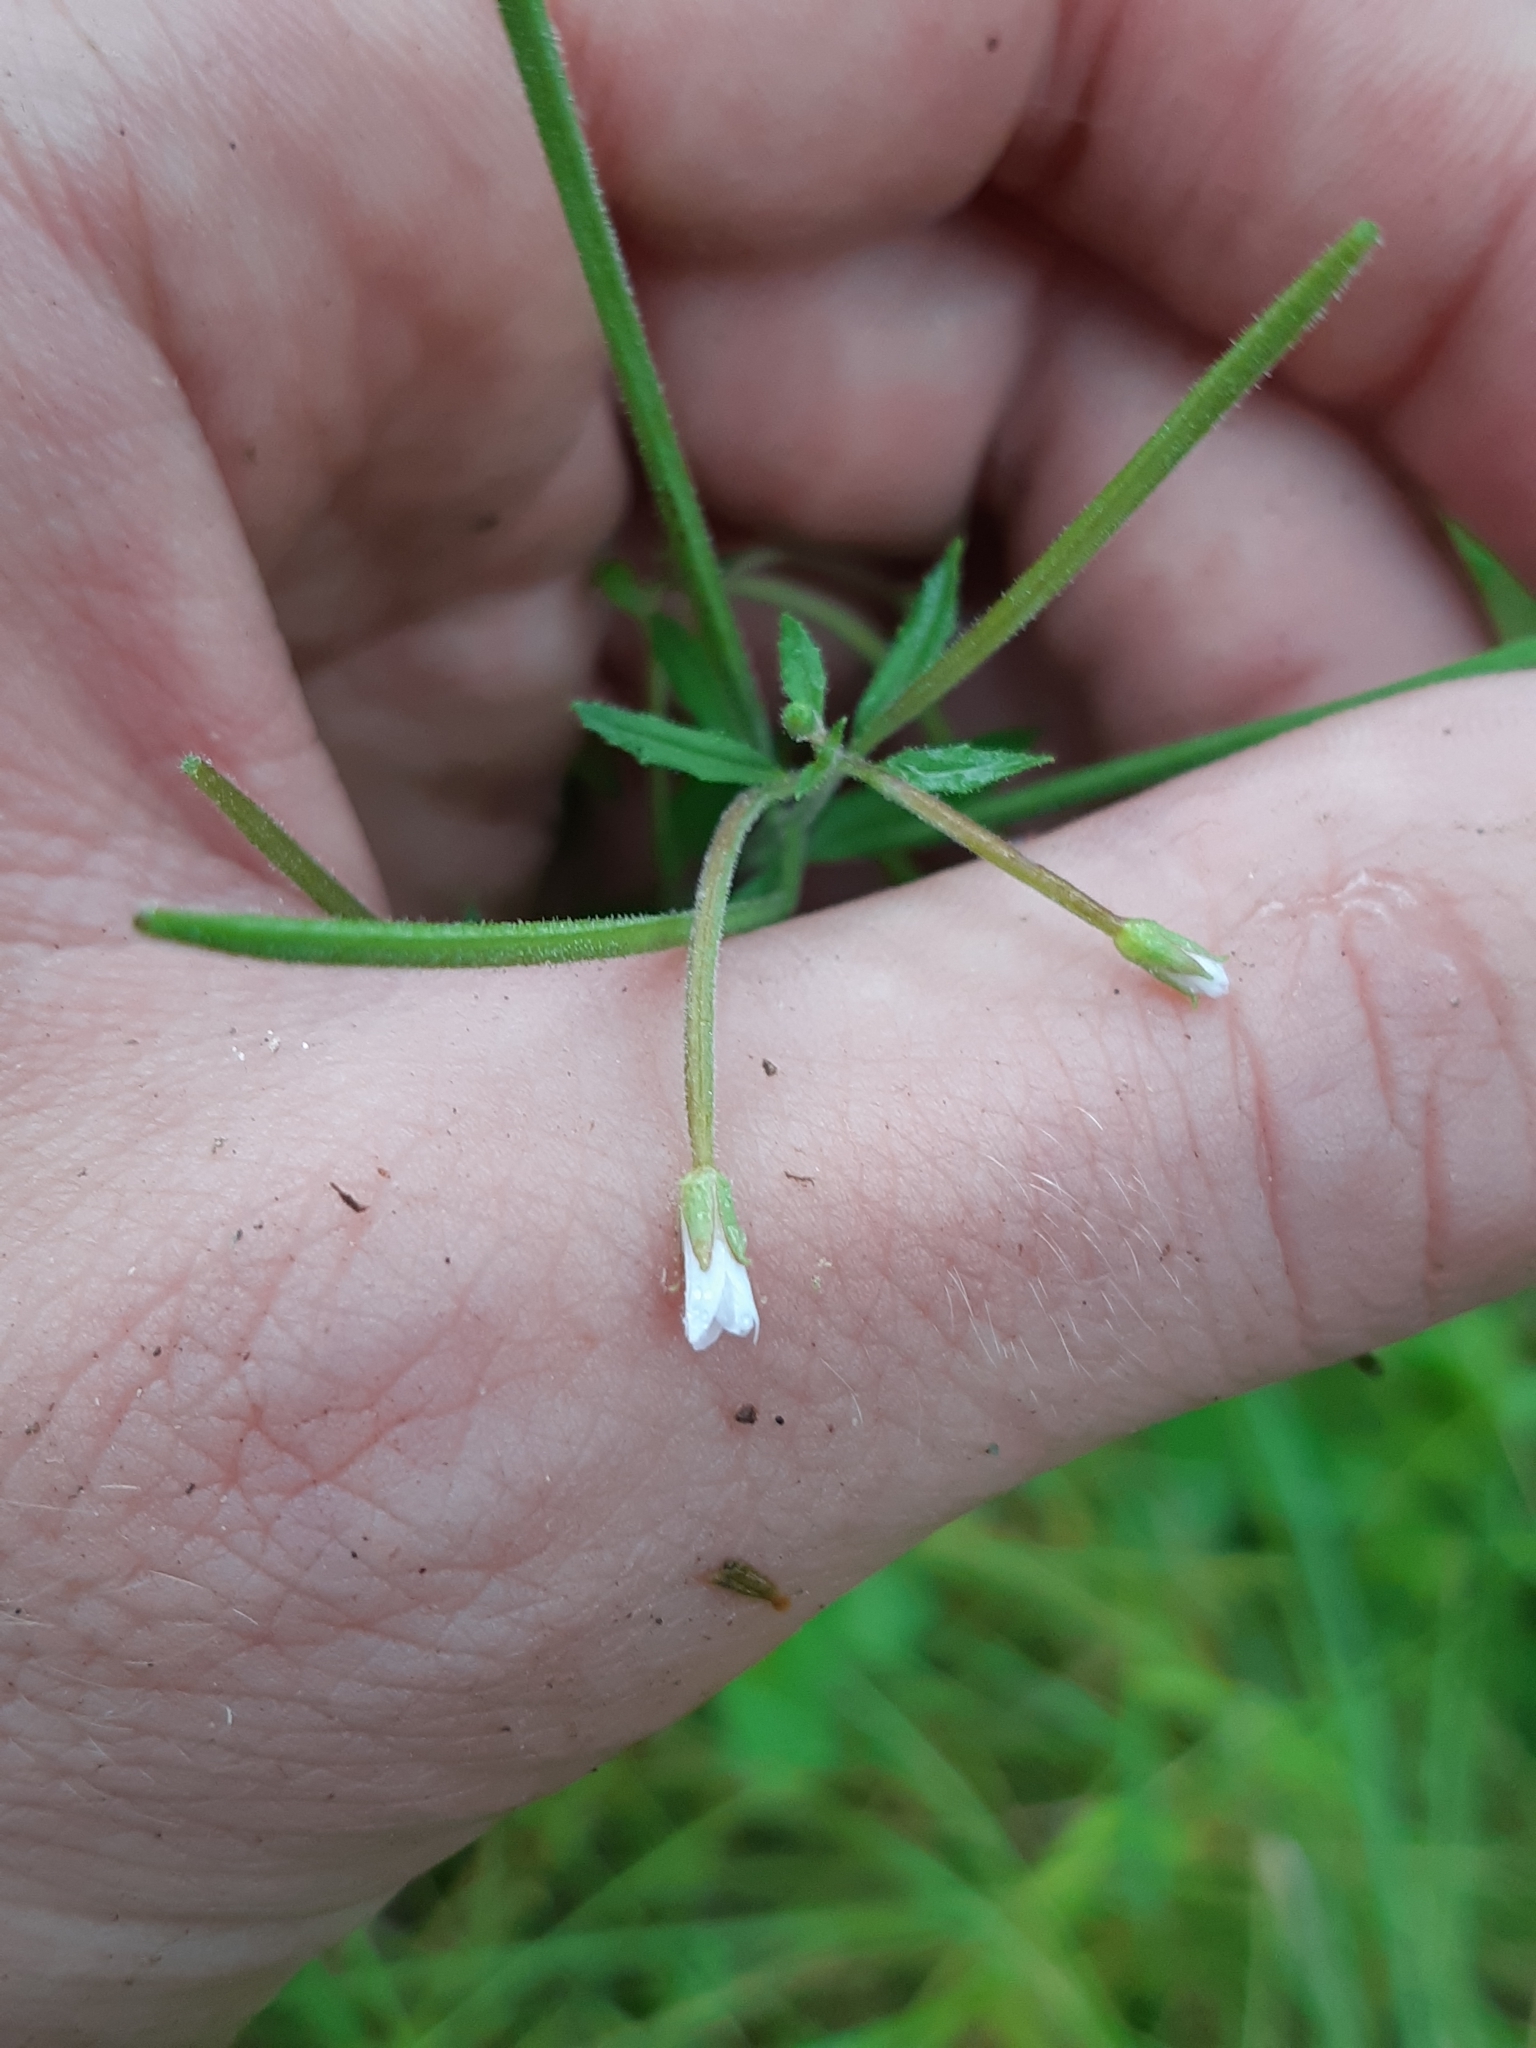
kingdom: Plantae
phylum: Tracheophyta
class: Magnoliopsida
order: Myrtales
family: Onagraceae
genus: Epilobium
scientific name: Epilobium ciliatum
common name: American willowherb
